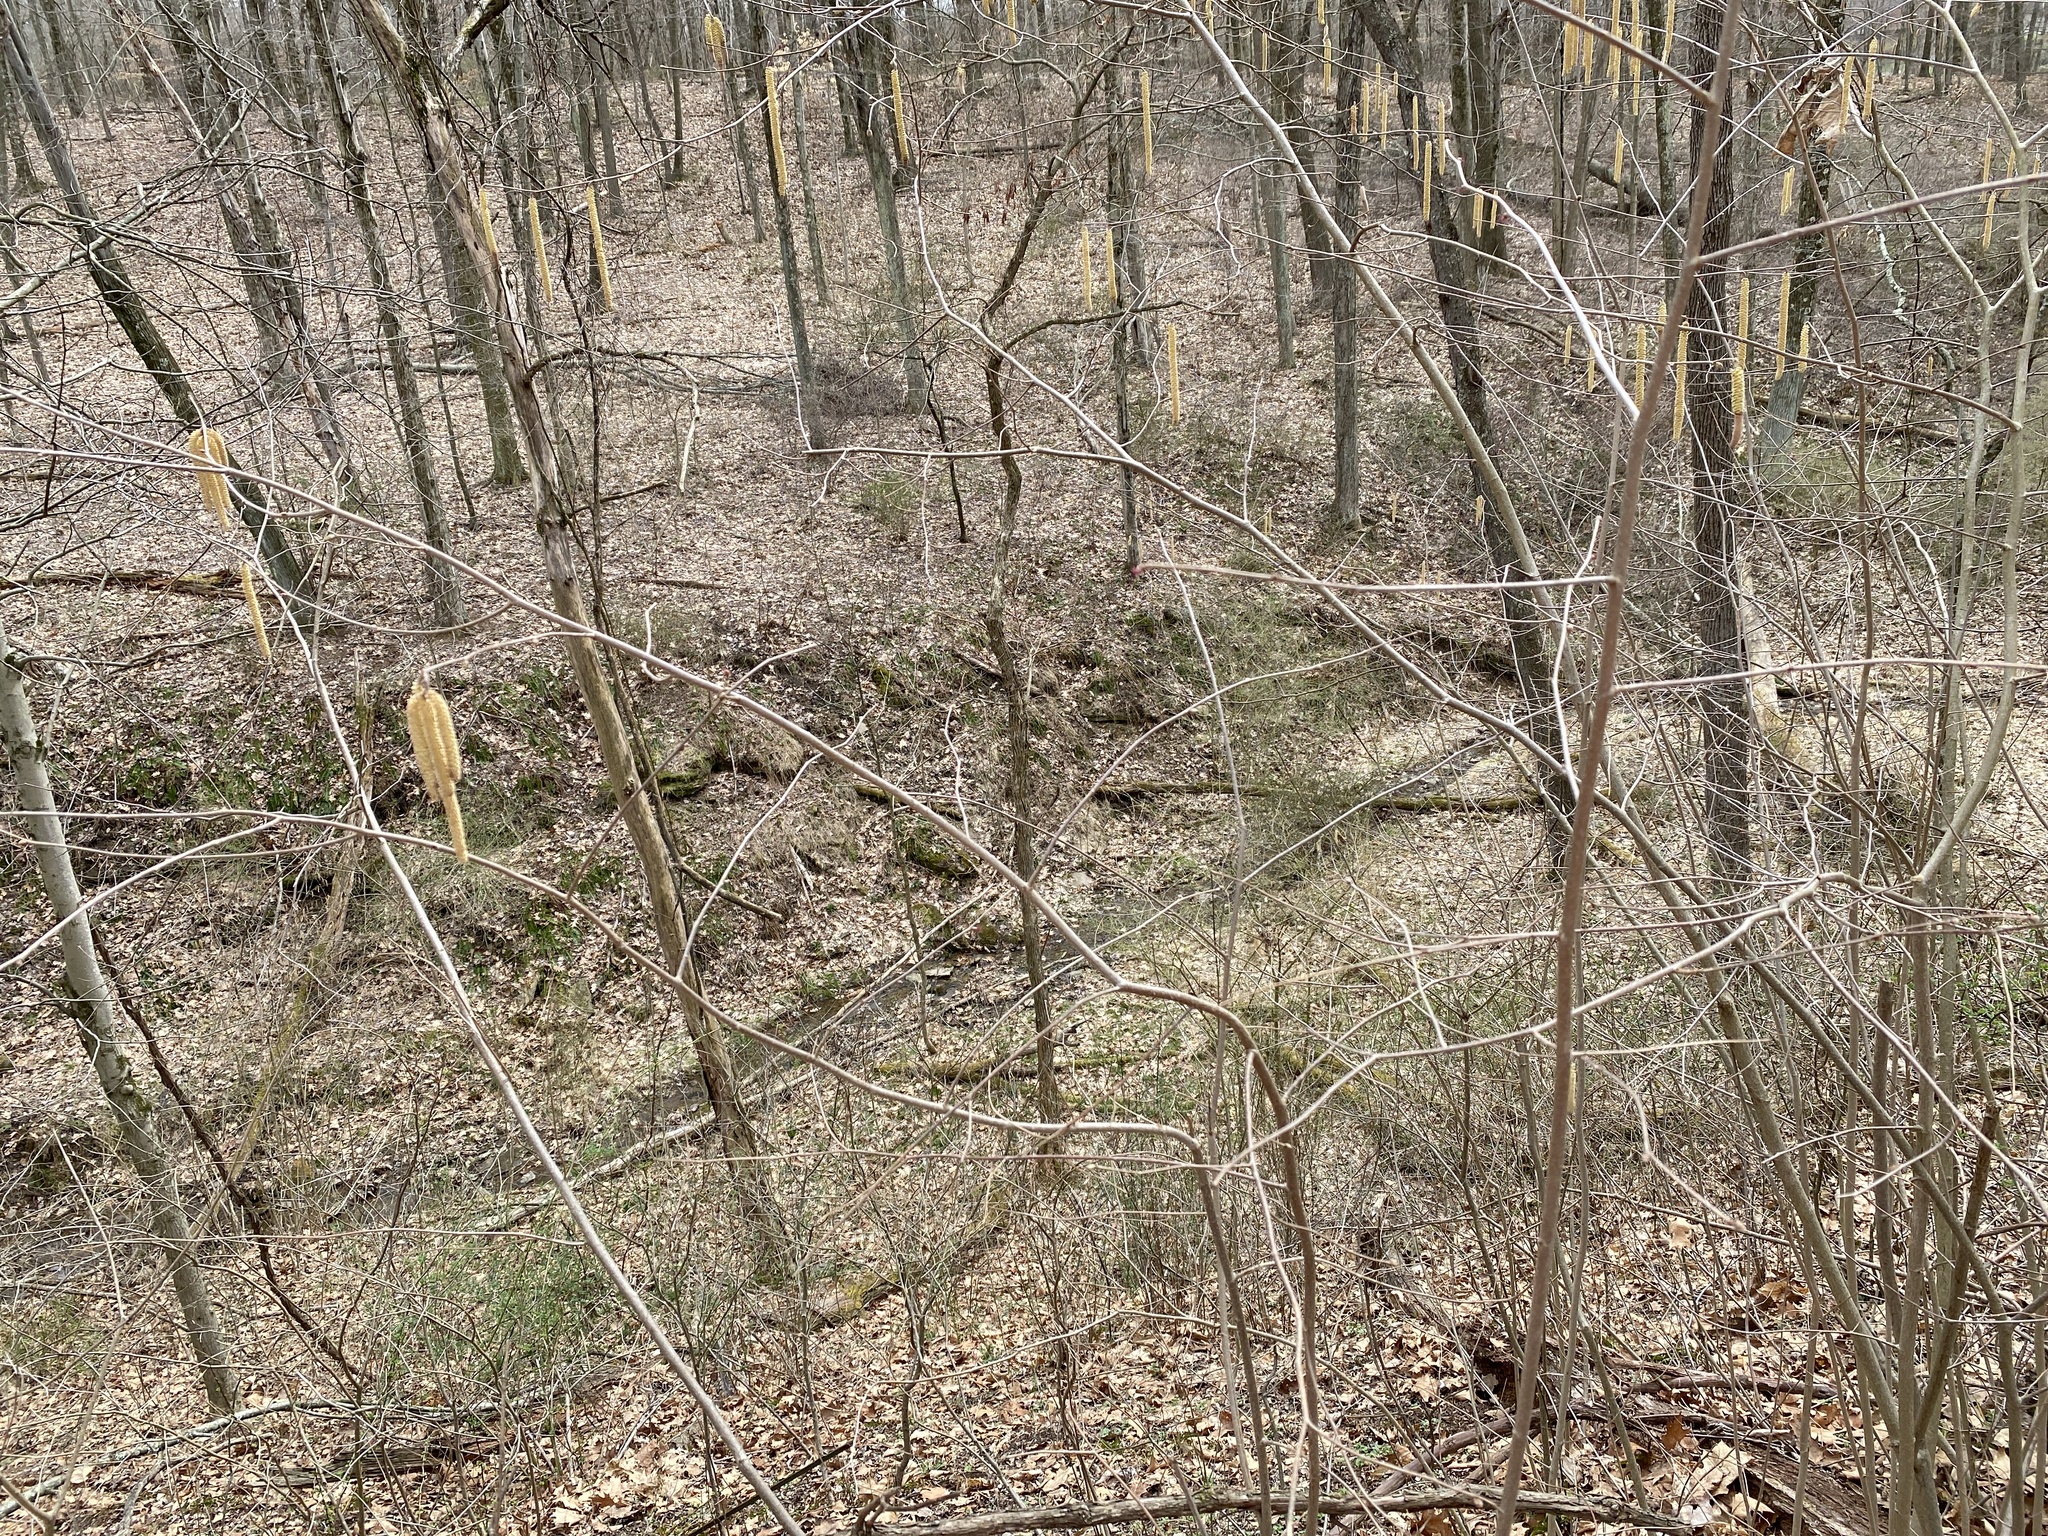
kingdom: Plantae
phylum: Tracheophyta
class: Magnoliopsida
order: Fagales
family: Betulaceae
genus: Corylus
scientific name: Corylus americana
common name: American hazel
